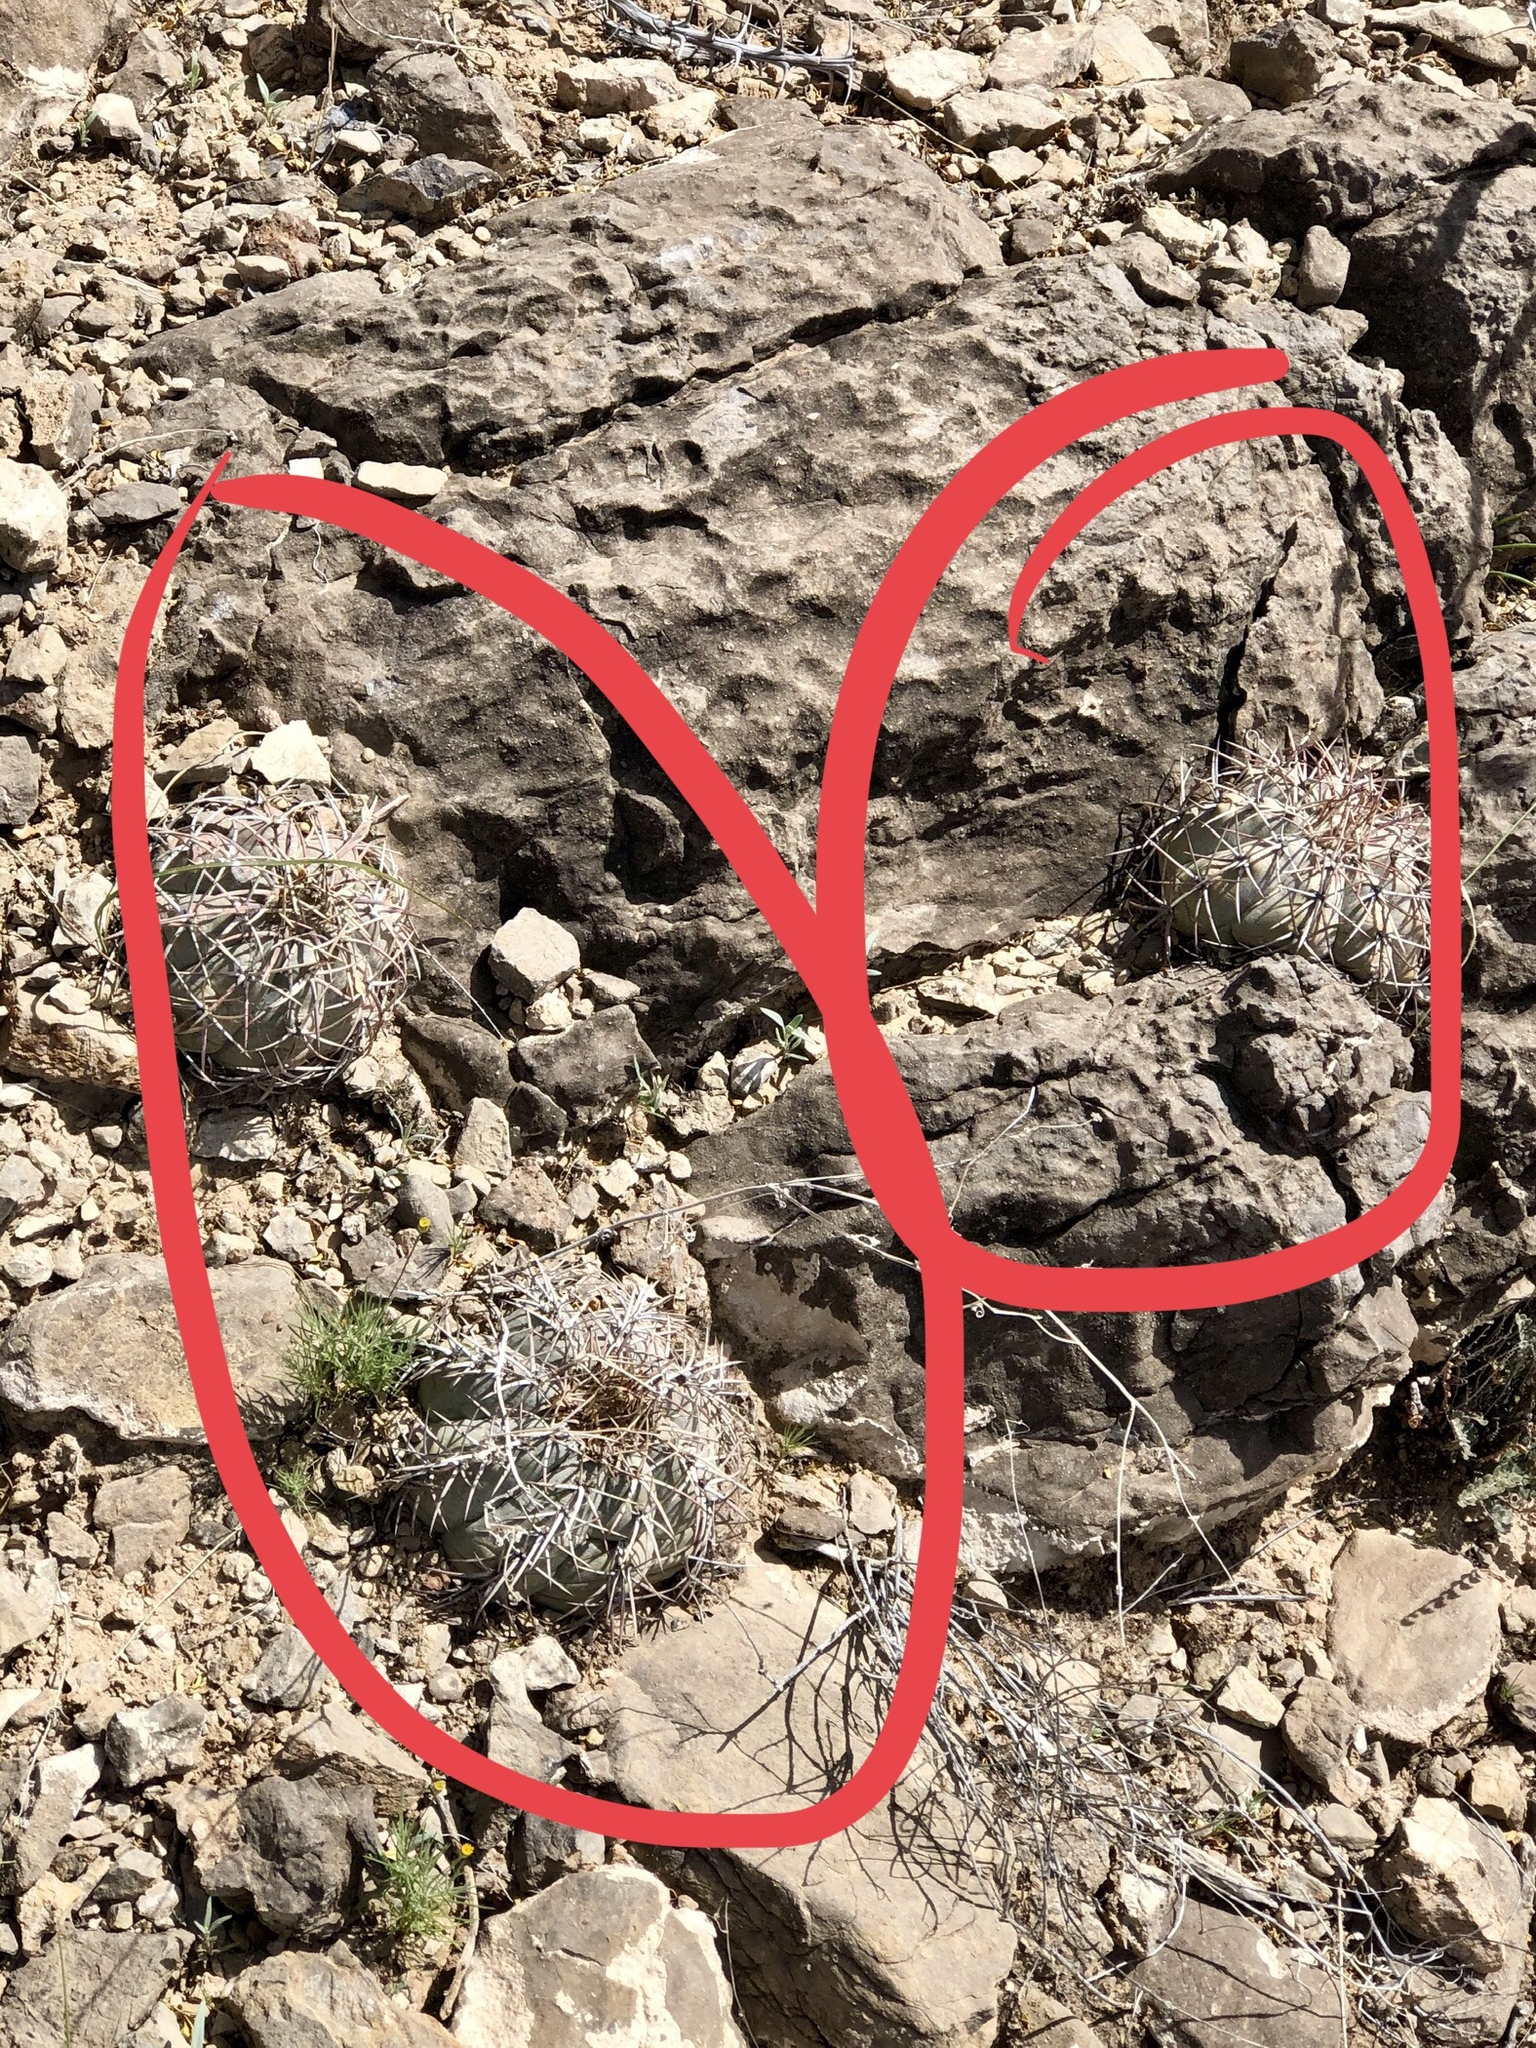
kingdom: Plantae
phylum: Tracheophyta
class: Magnoliopsida
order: Caryophyllales
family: Cactaceae
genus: Echinocactus
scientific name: Echinocactus horizonthalonius
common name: Devilshead
